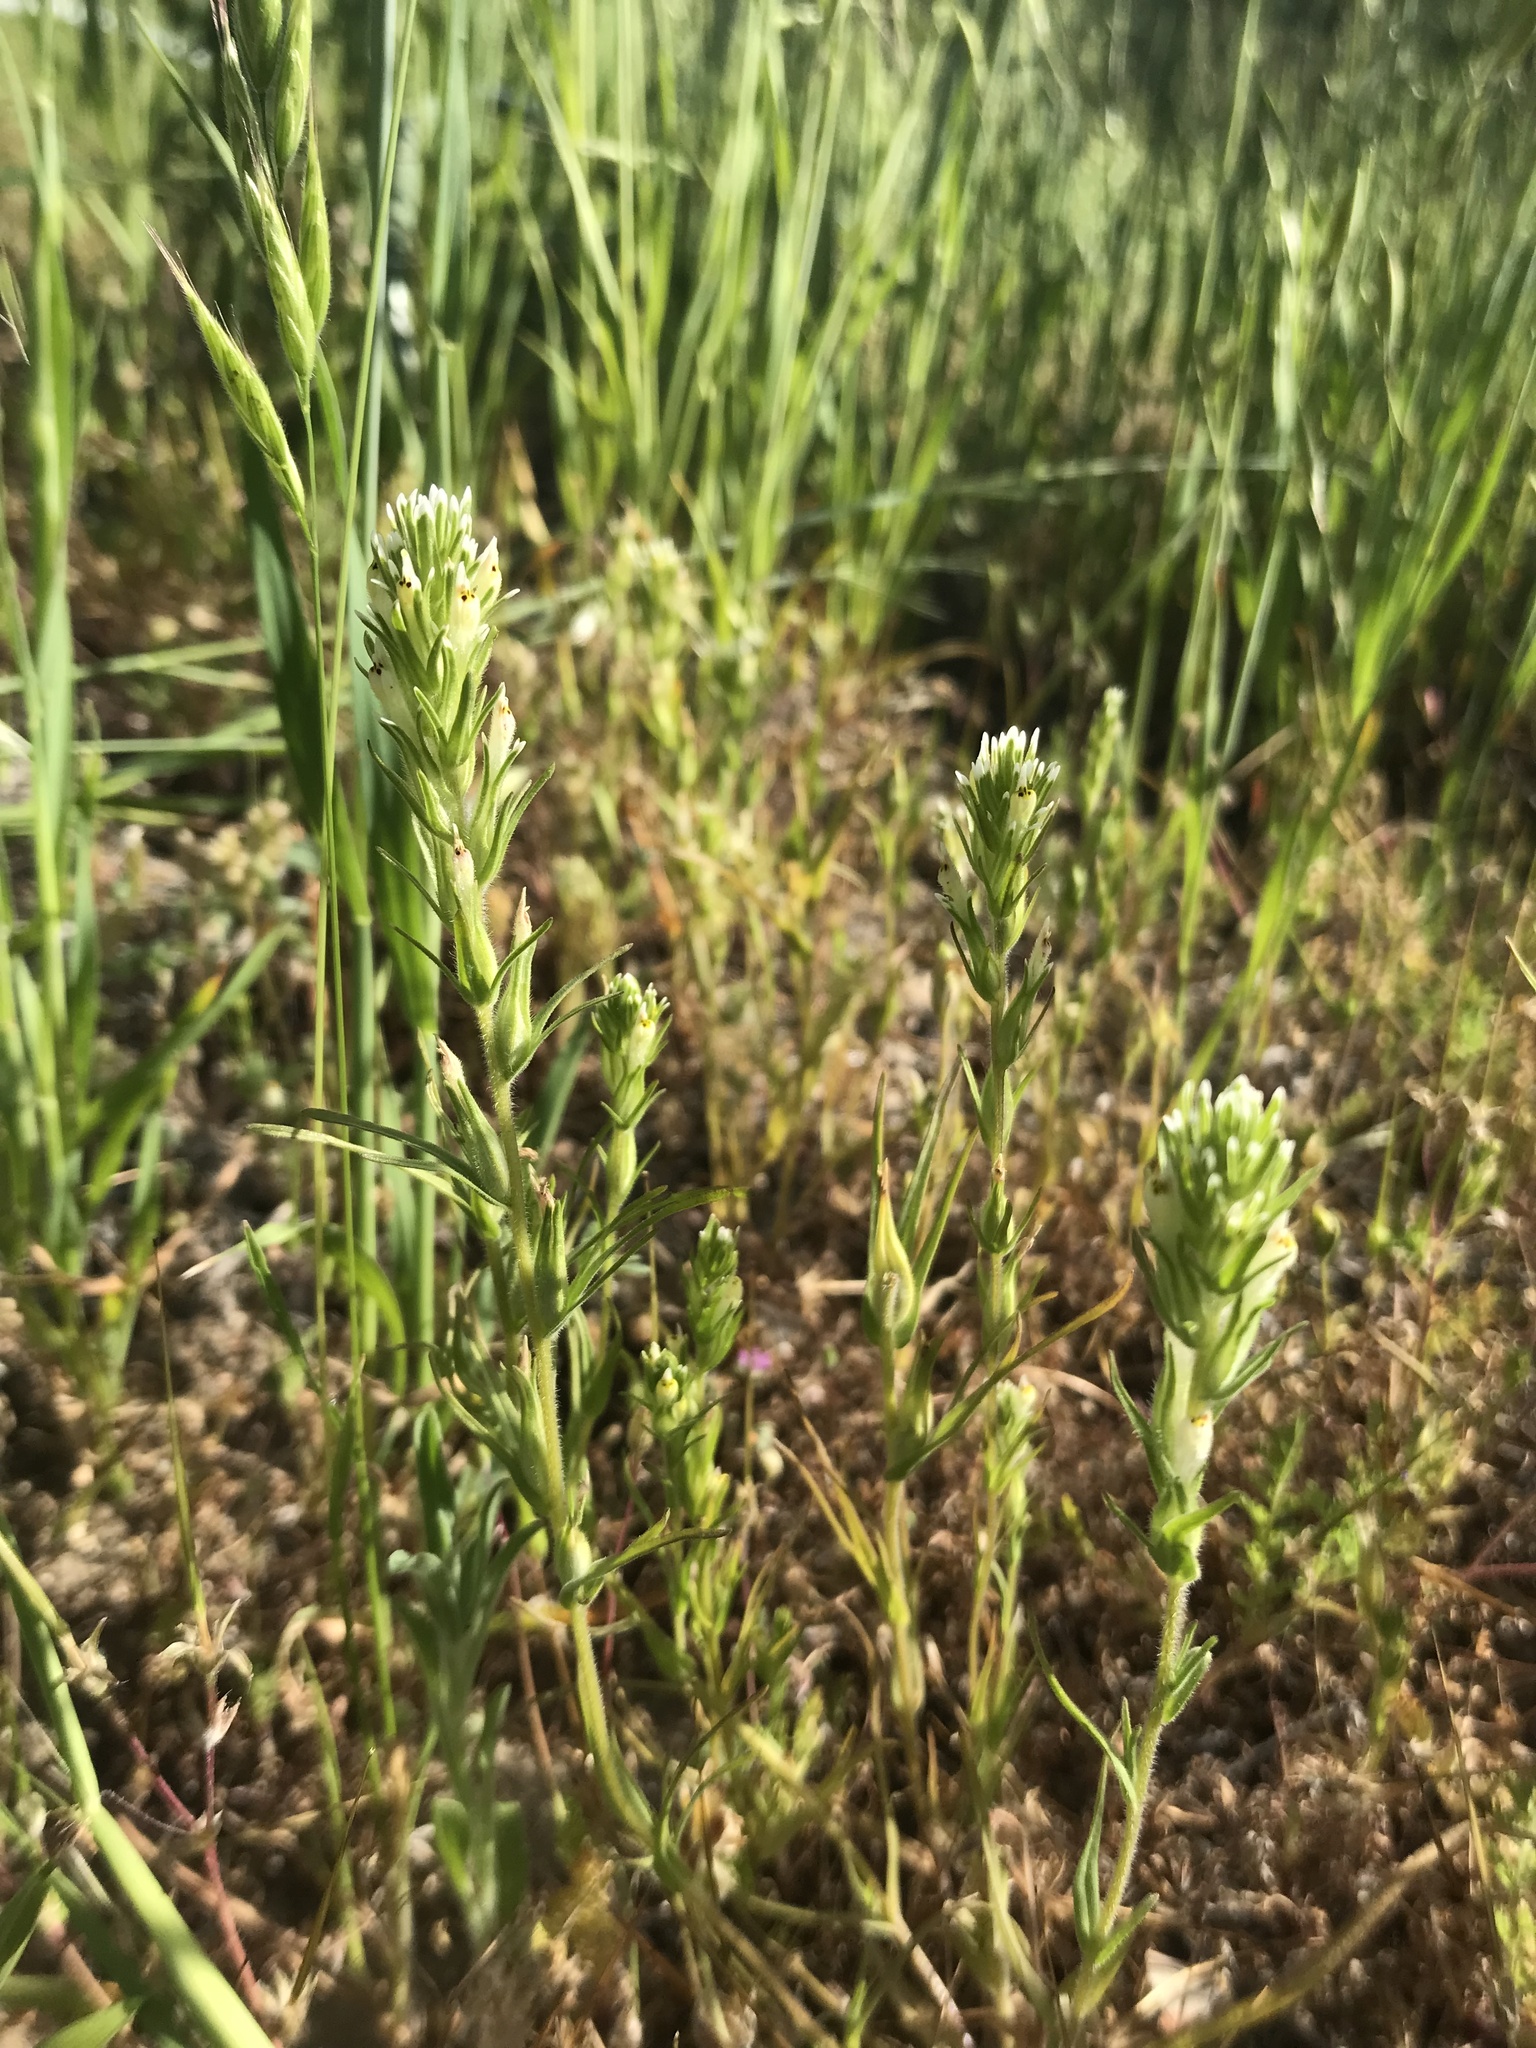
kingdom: Plantae
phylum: Tracheophyta
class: Magnoliopsida
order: Lamiales
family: Orobanchaceae
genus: Castilleja
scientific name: Castilleja attenuata
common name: Valley tassels
